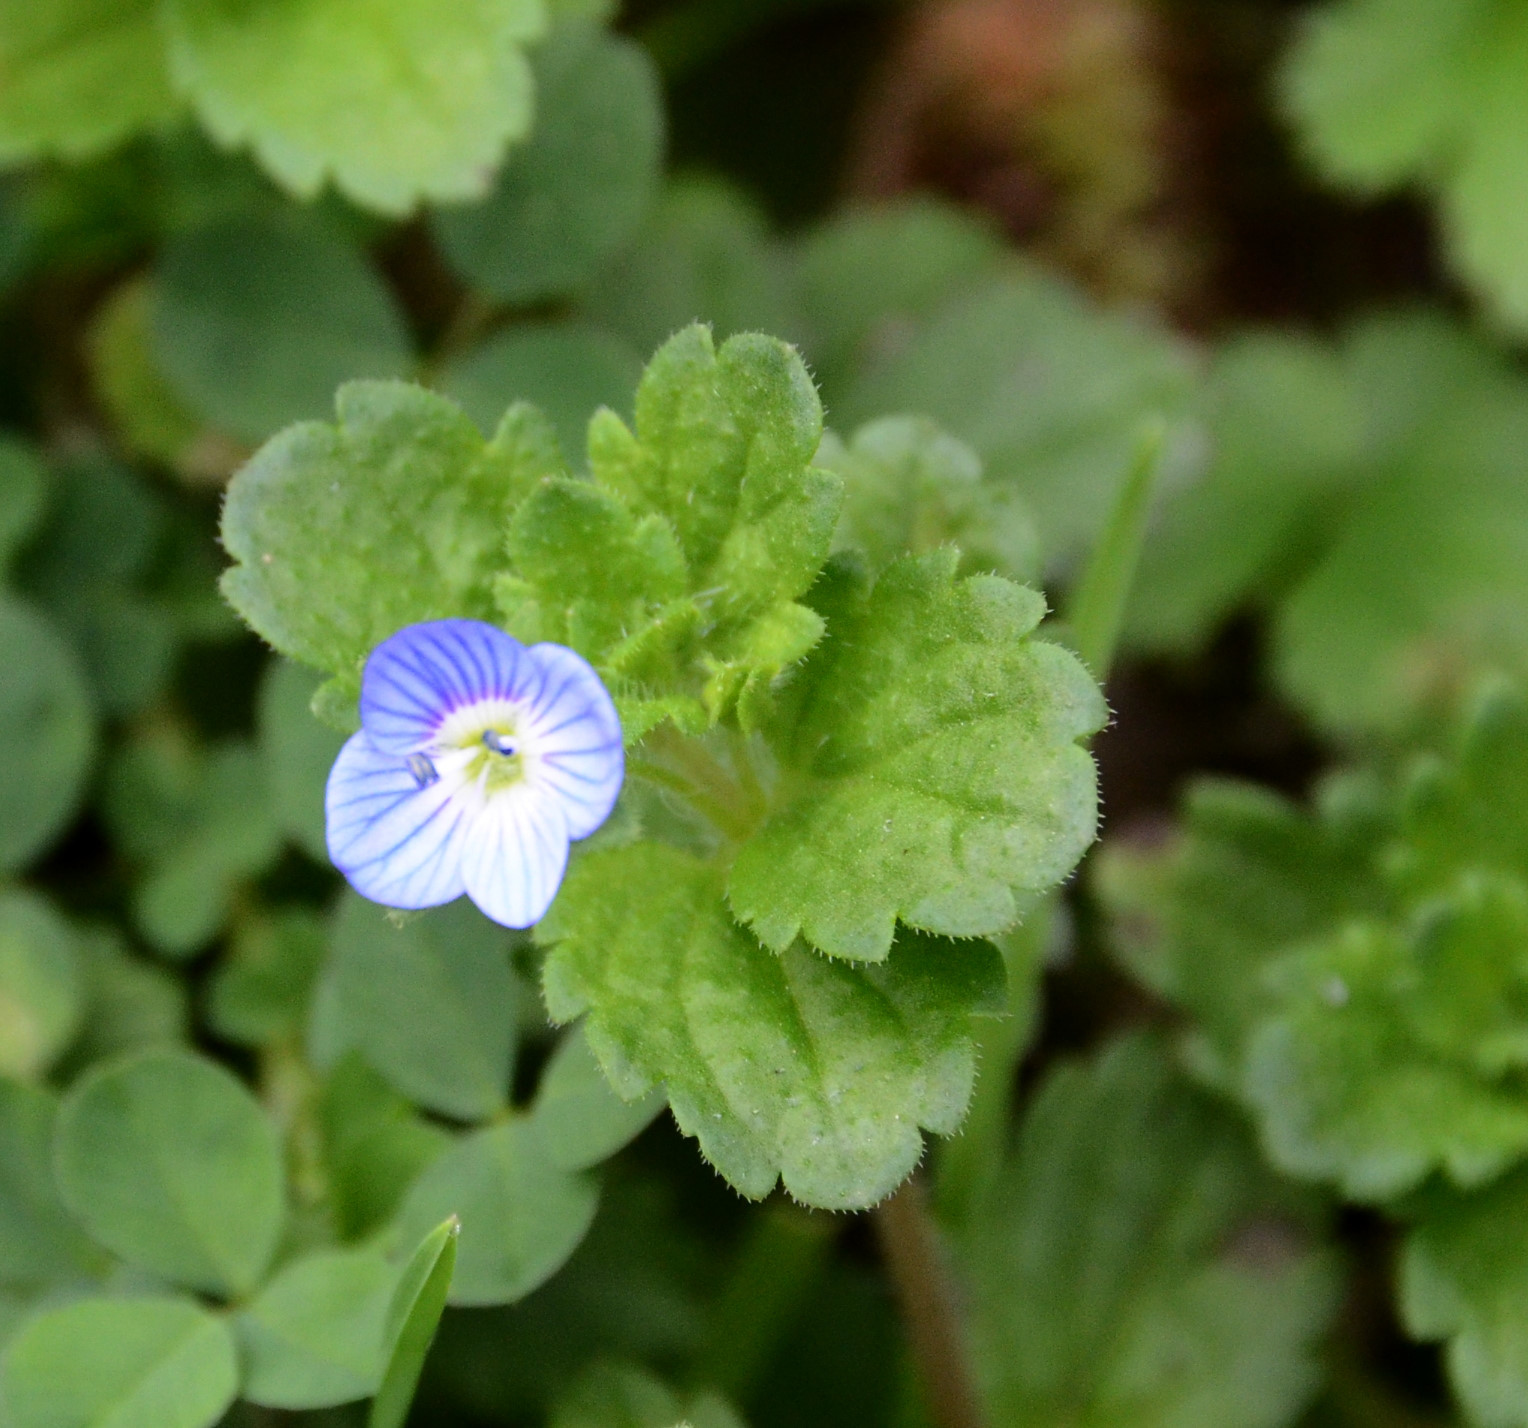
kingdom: Plantae
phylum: Tracheophyta
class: Magnoliopsida
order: Lamiales
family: Plantaginaceae
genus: Veronica
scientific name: Veronica persica
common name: Common field-speedwell
